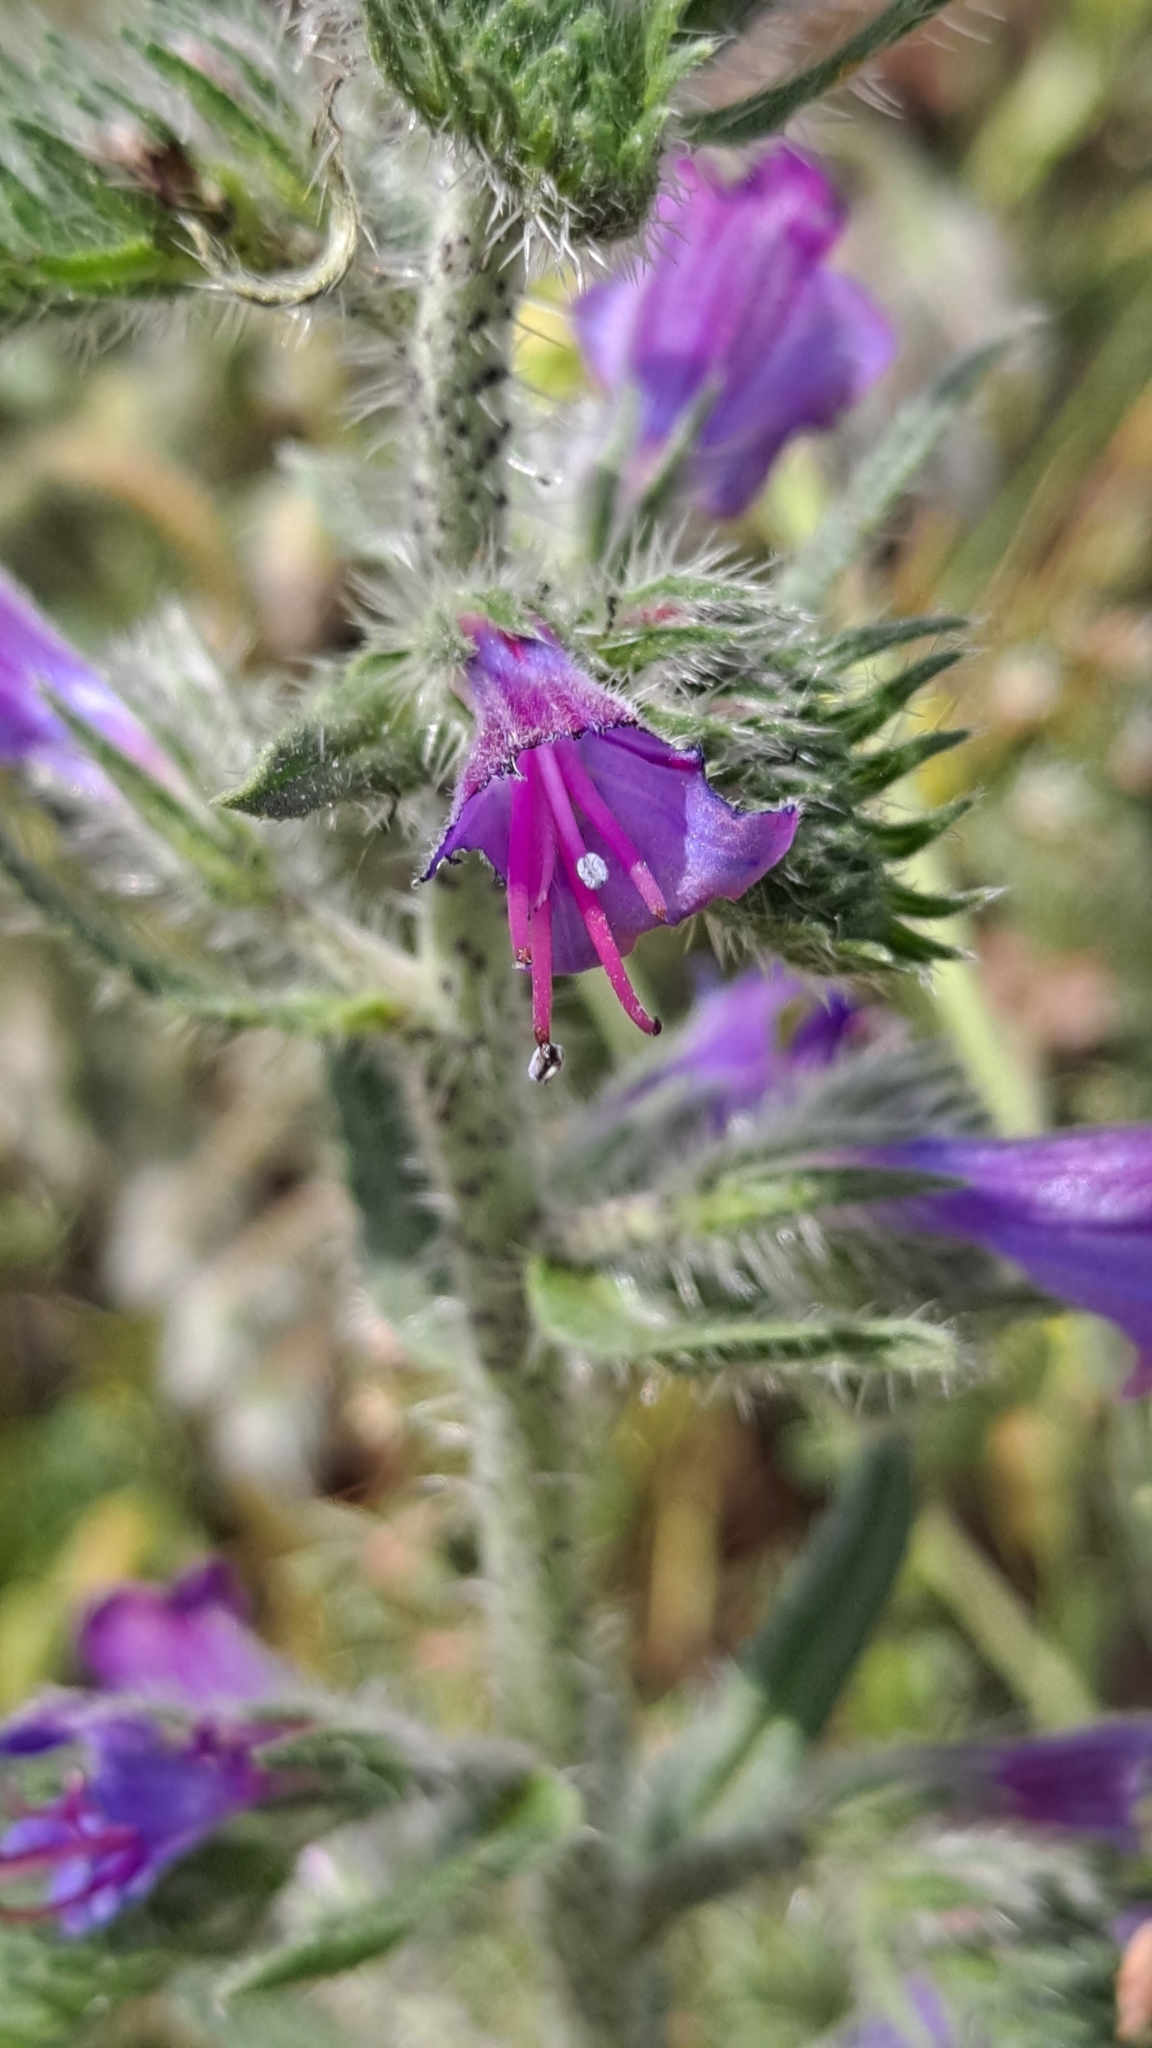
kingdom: Plantae
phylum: Tracheophyta
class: Magnoliopsida
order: Boraginales
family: Boraginaceae
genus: Echium
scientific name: Echium vulgare
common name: Common viper's bugloss
